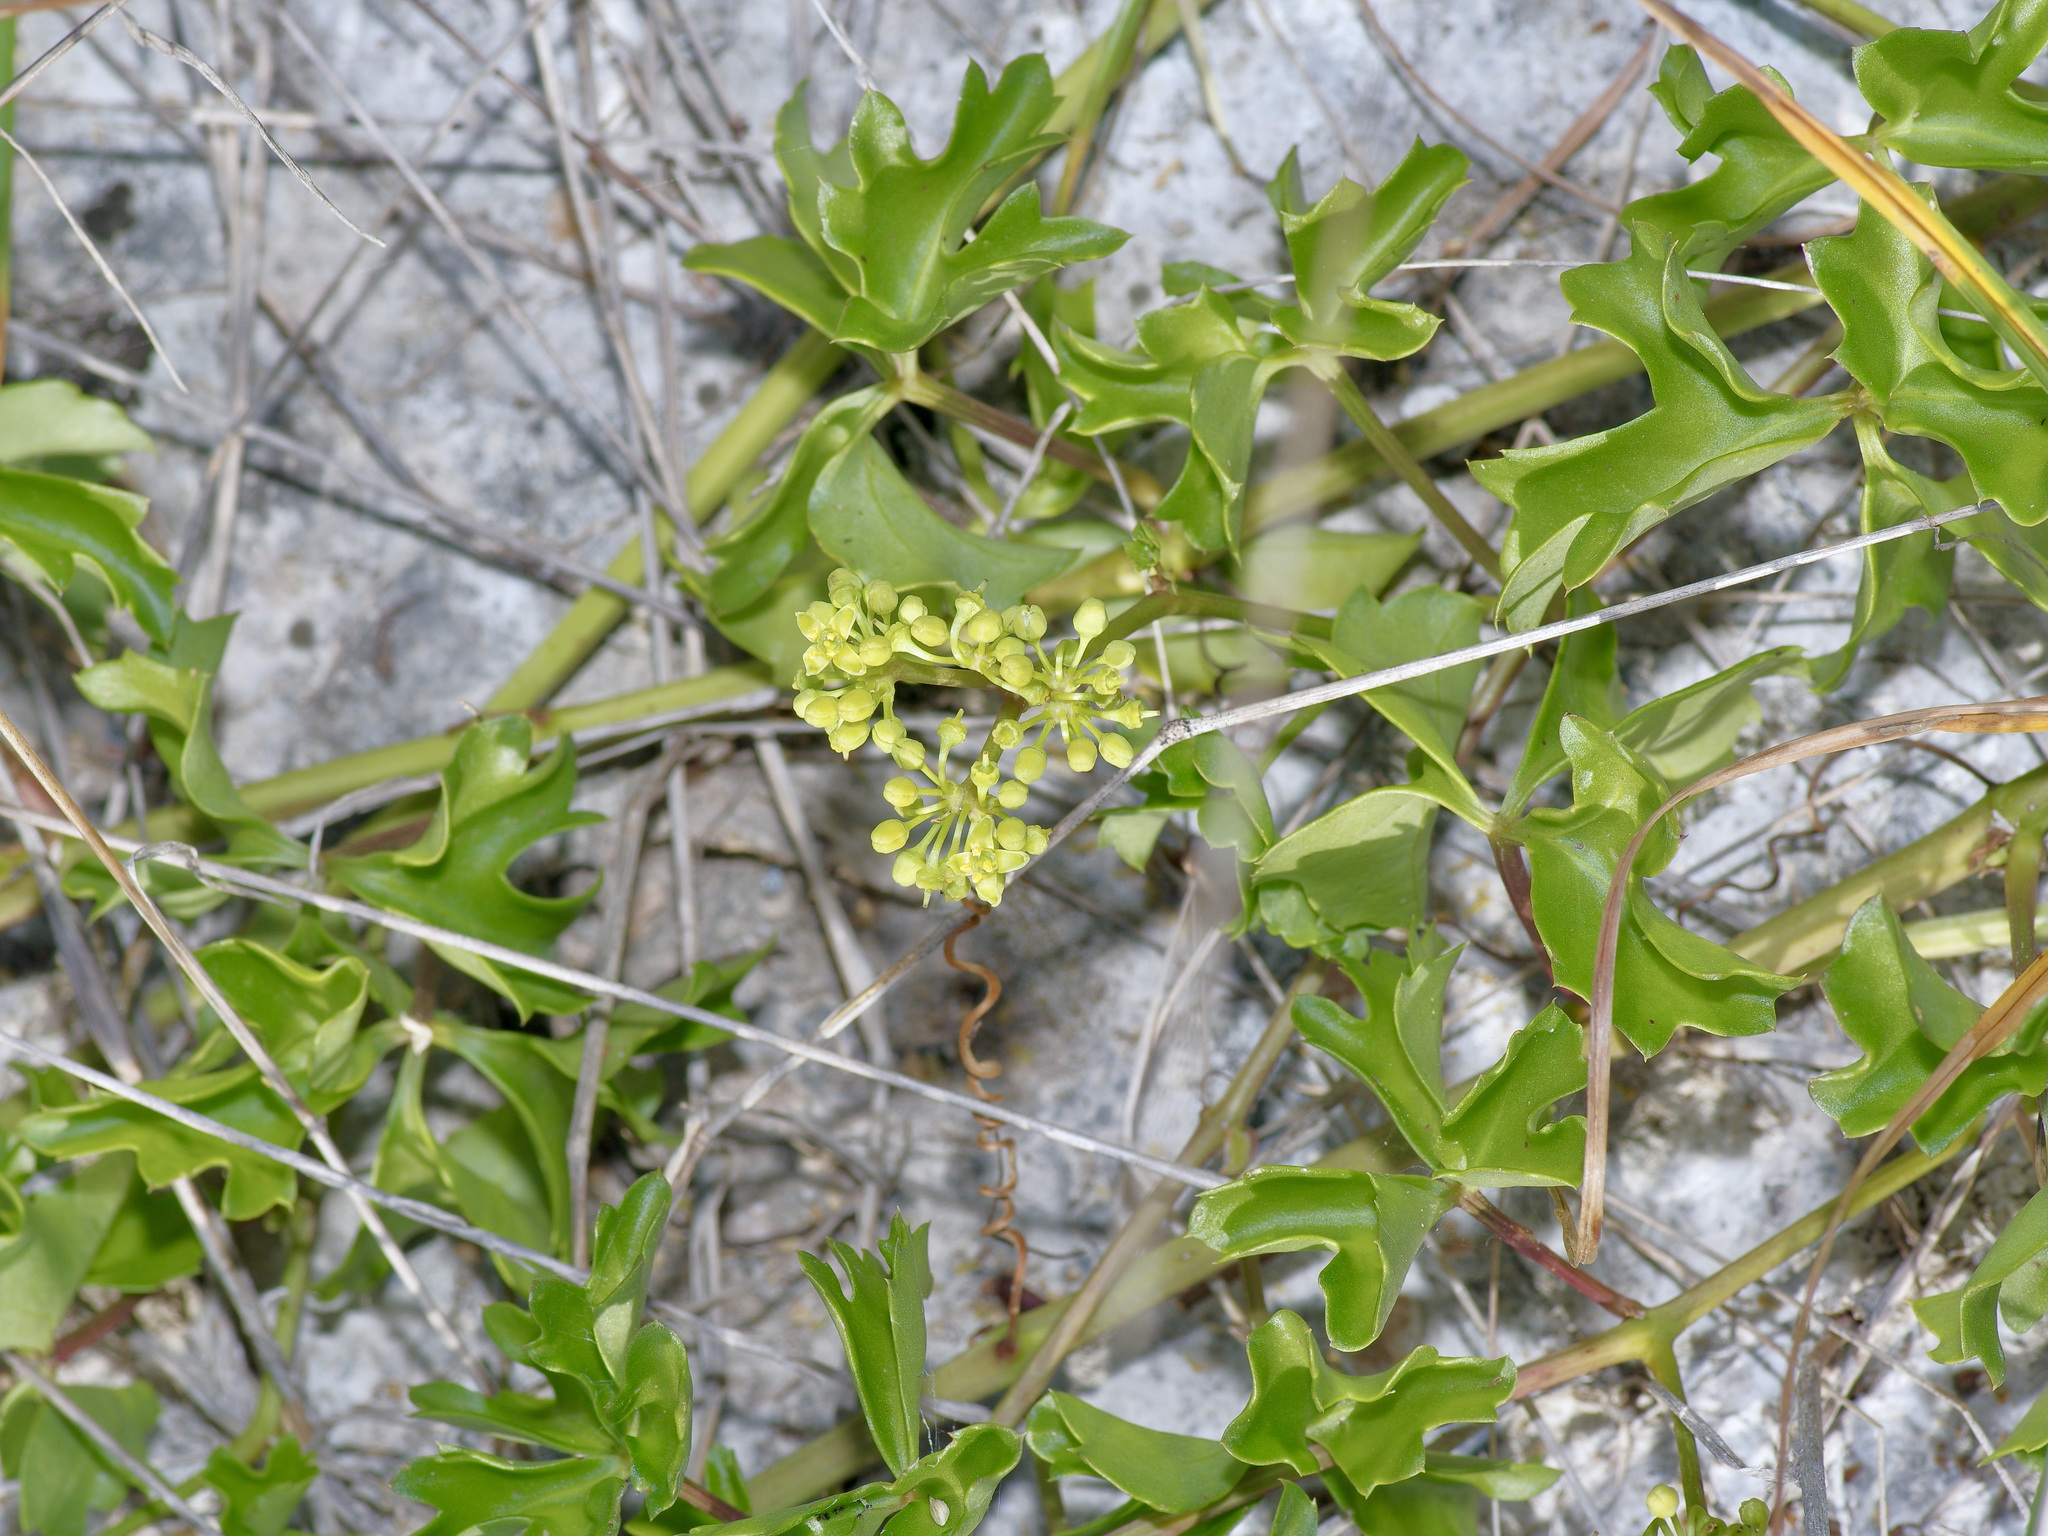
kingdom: Plantae
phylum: Tracheophyta
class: Magnoliopsida
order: Vitales
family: Vitaceae
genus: Cissus
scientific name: Cissus trifoliata
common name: Vine-sorrel
